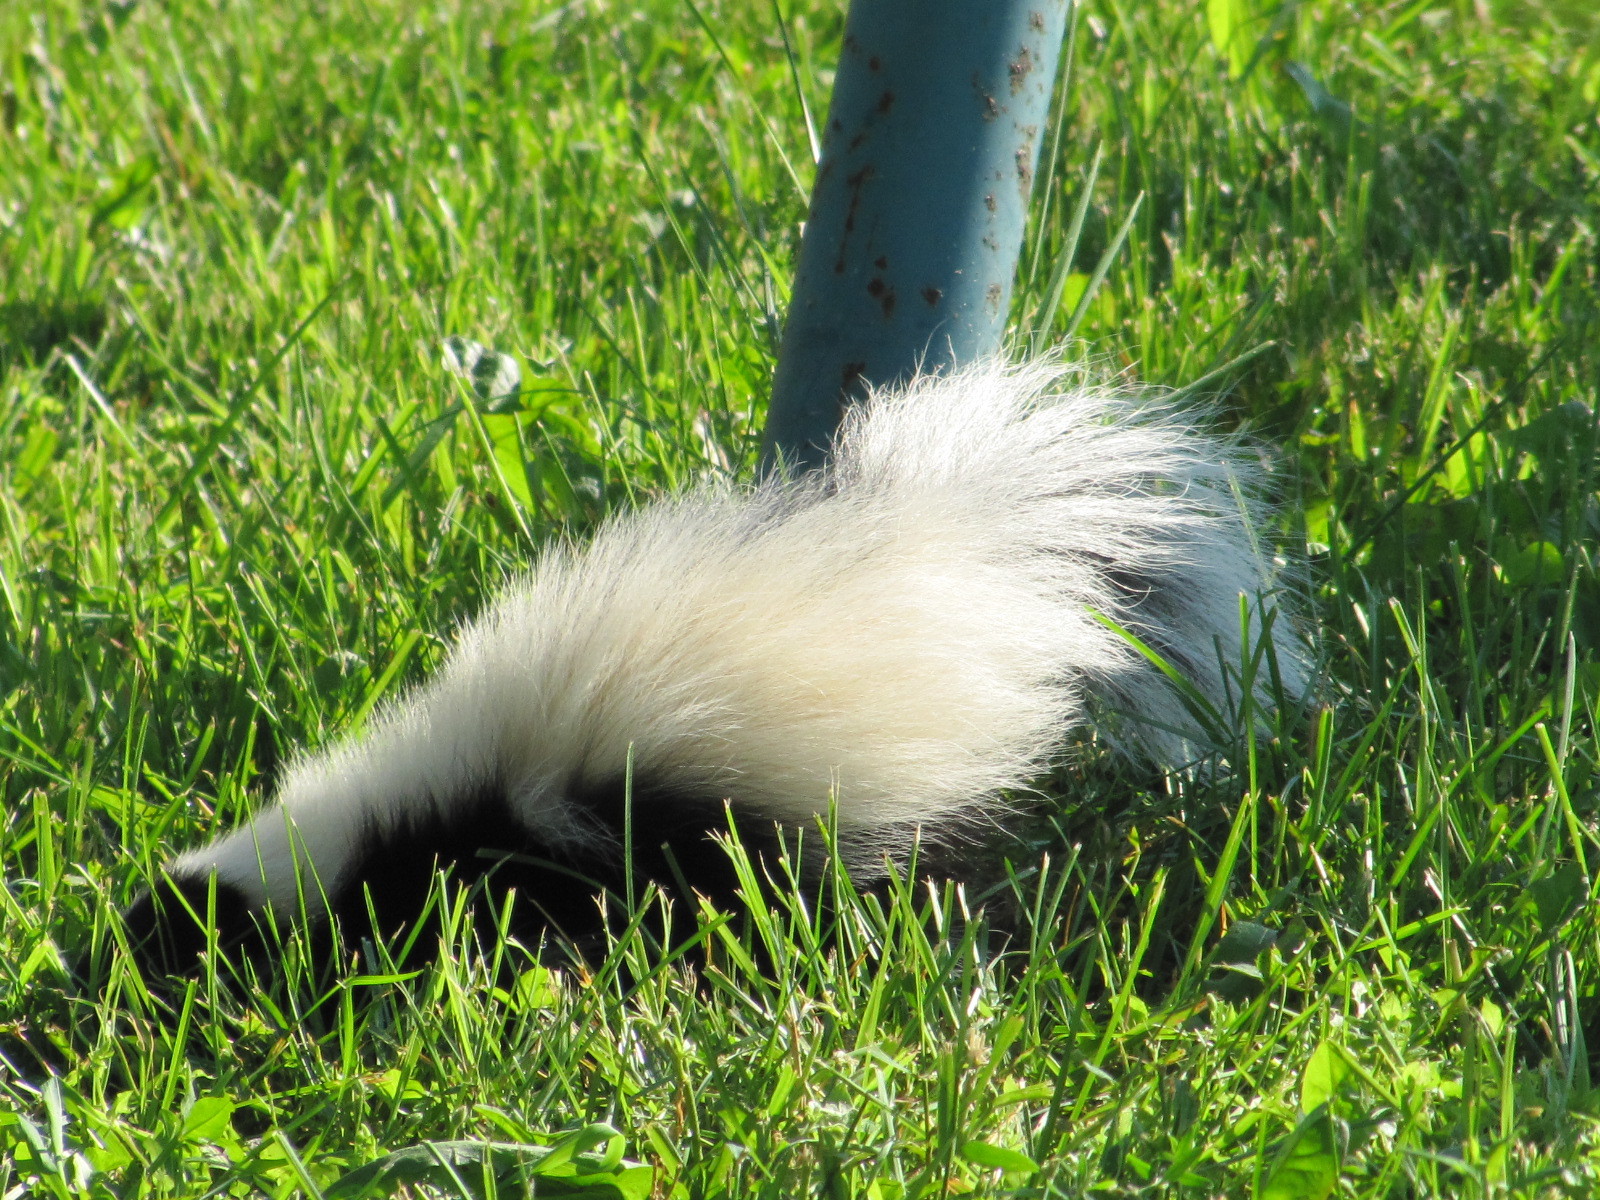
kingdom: Animalia
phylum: Chordata
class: Mammalia
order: Carnivora
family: Mephitidae
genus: Mephitis
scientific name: Mephitis mephitis
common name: Striped skunk
